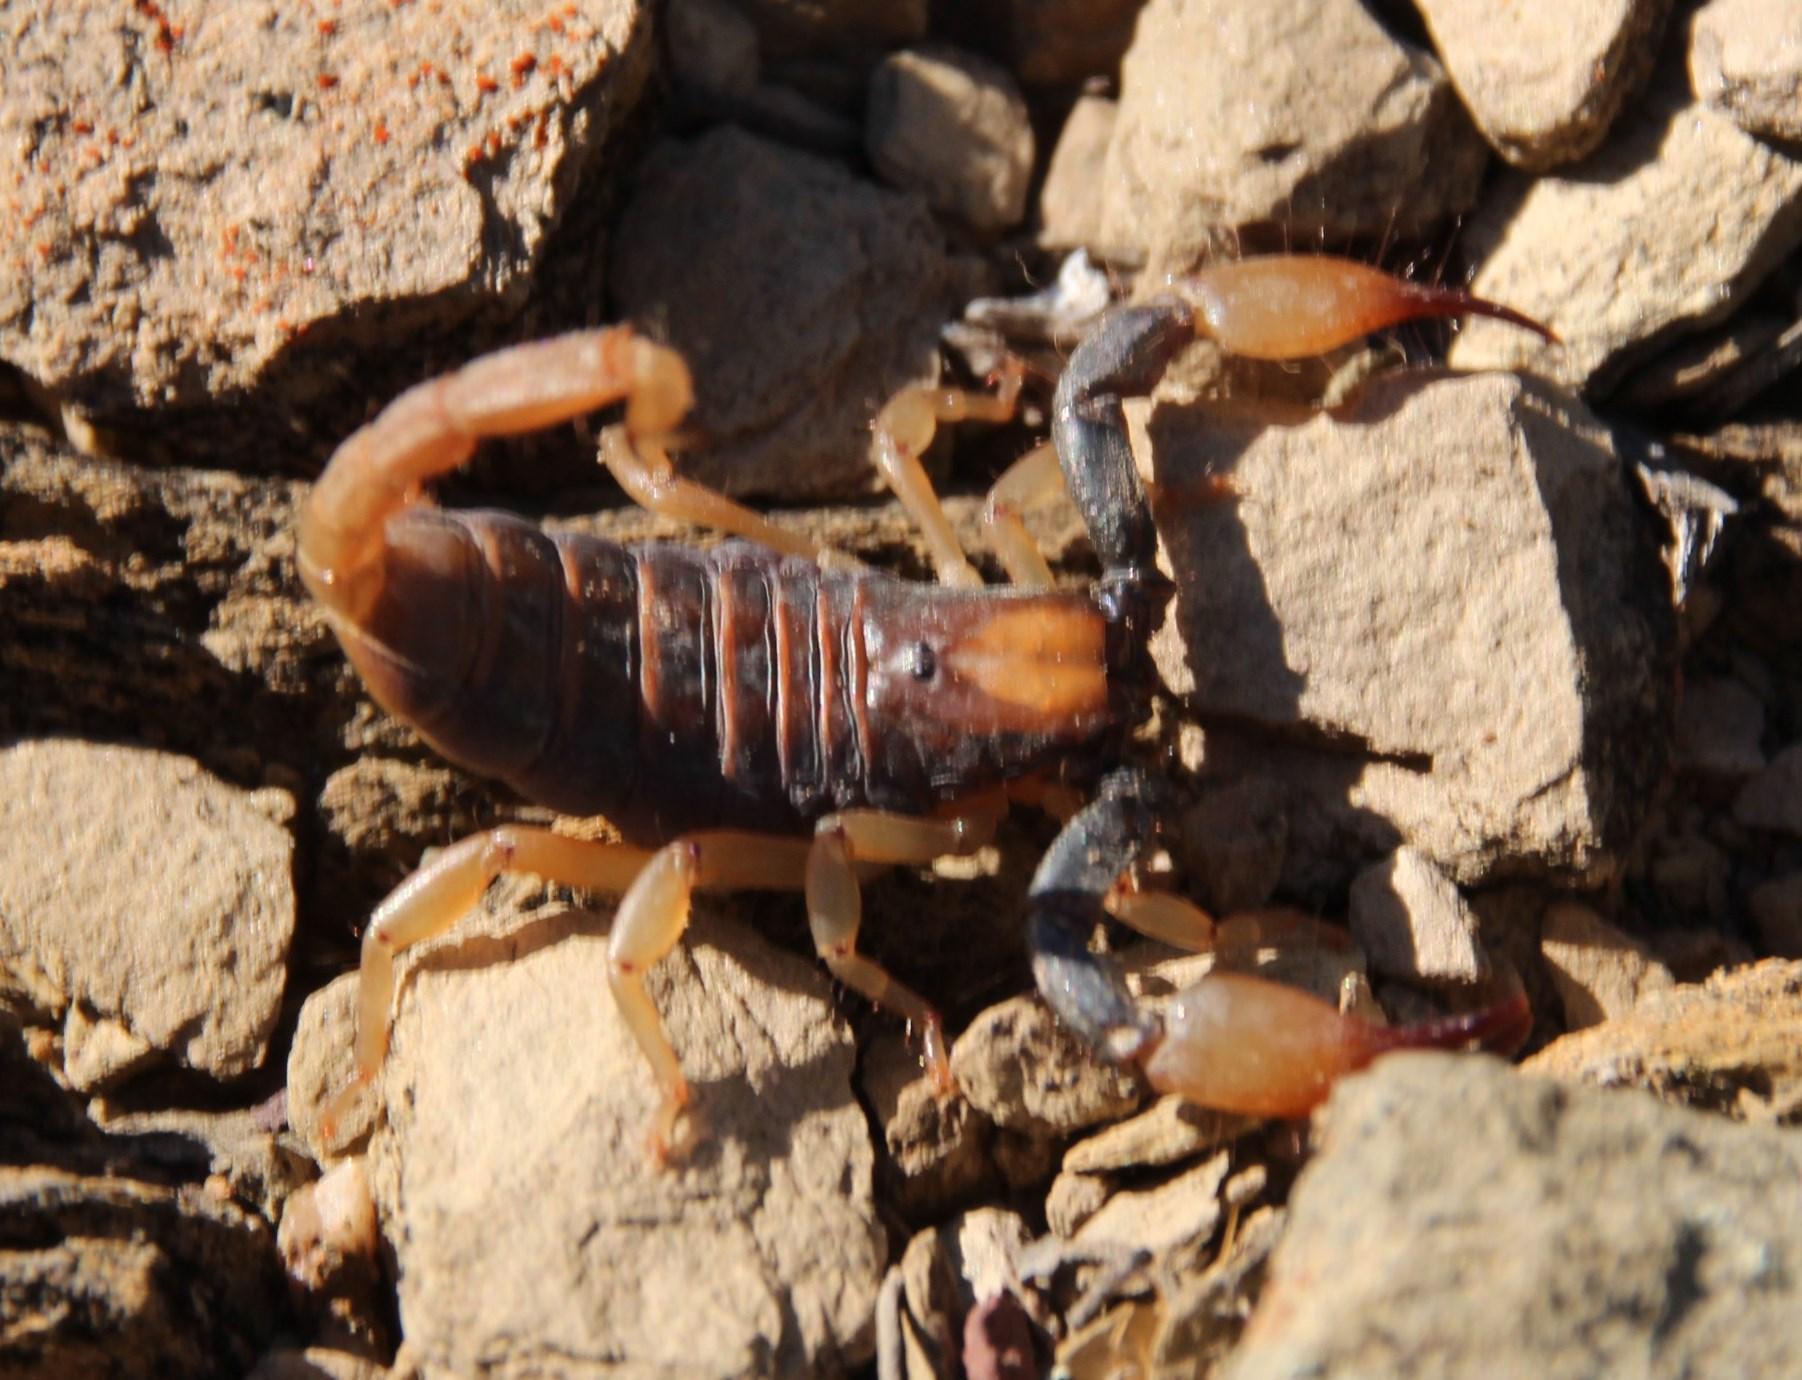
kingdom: Animalia
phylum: Arthropoda
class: Arachnida
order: Scorpiones
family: Scorpionidae
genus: Opistophthalmus
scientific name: Opistophthalmus karrooensis
